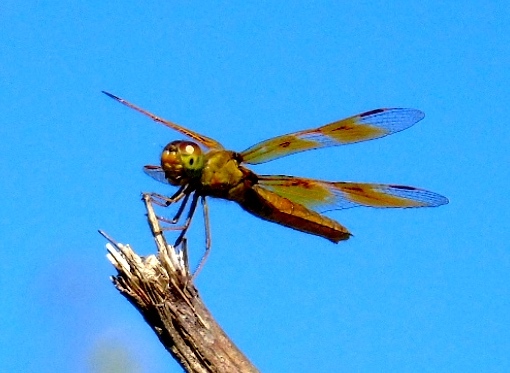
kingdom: Animalia
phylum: Arthropoda
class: Insecta
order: Odonata
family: Libellulidae
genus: Perithemis
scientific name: Perithemis
